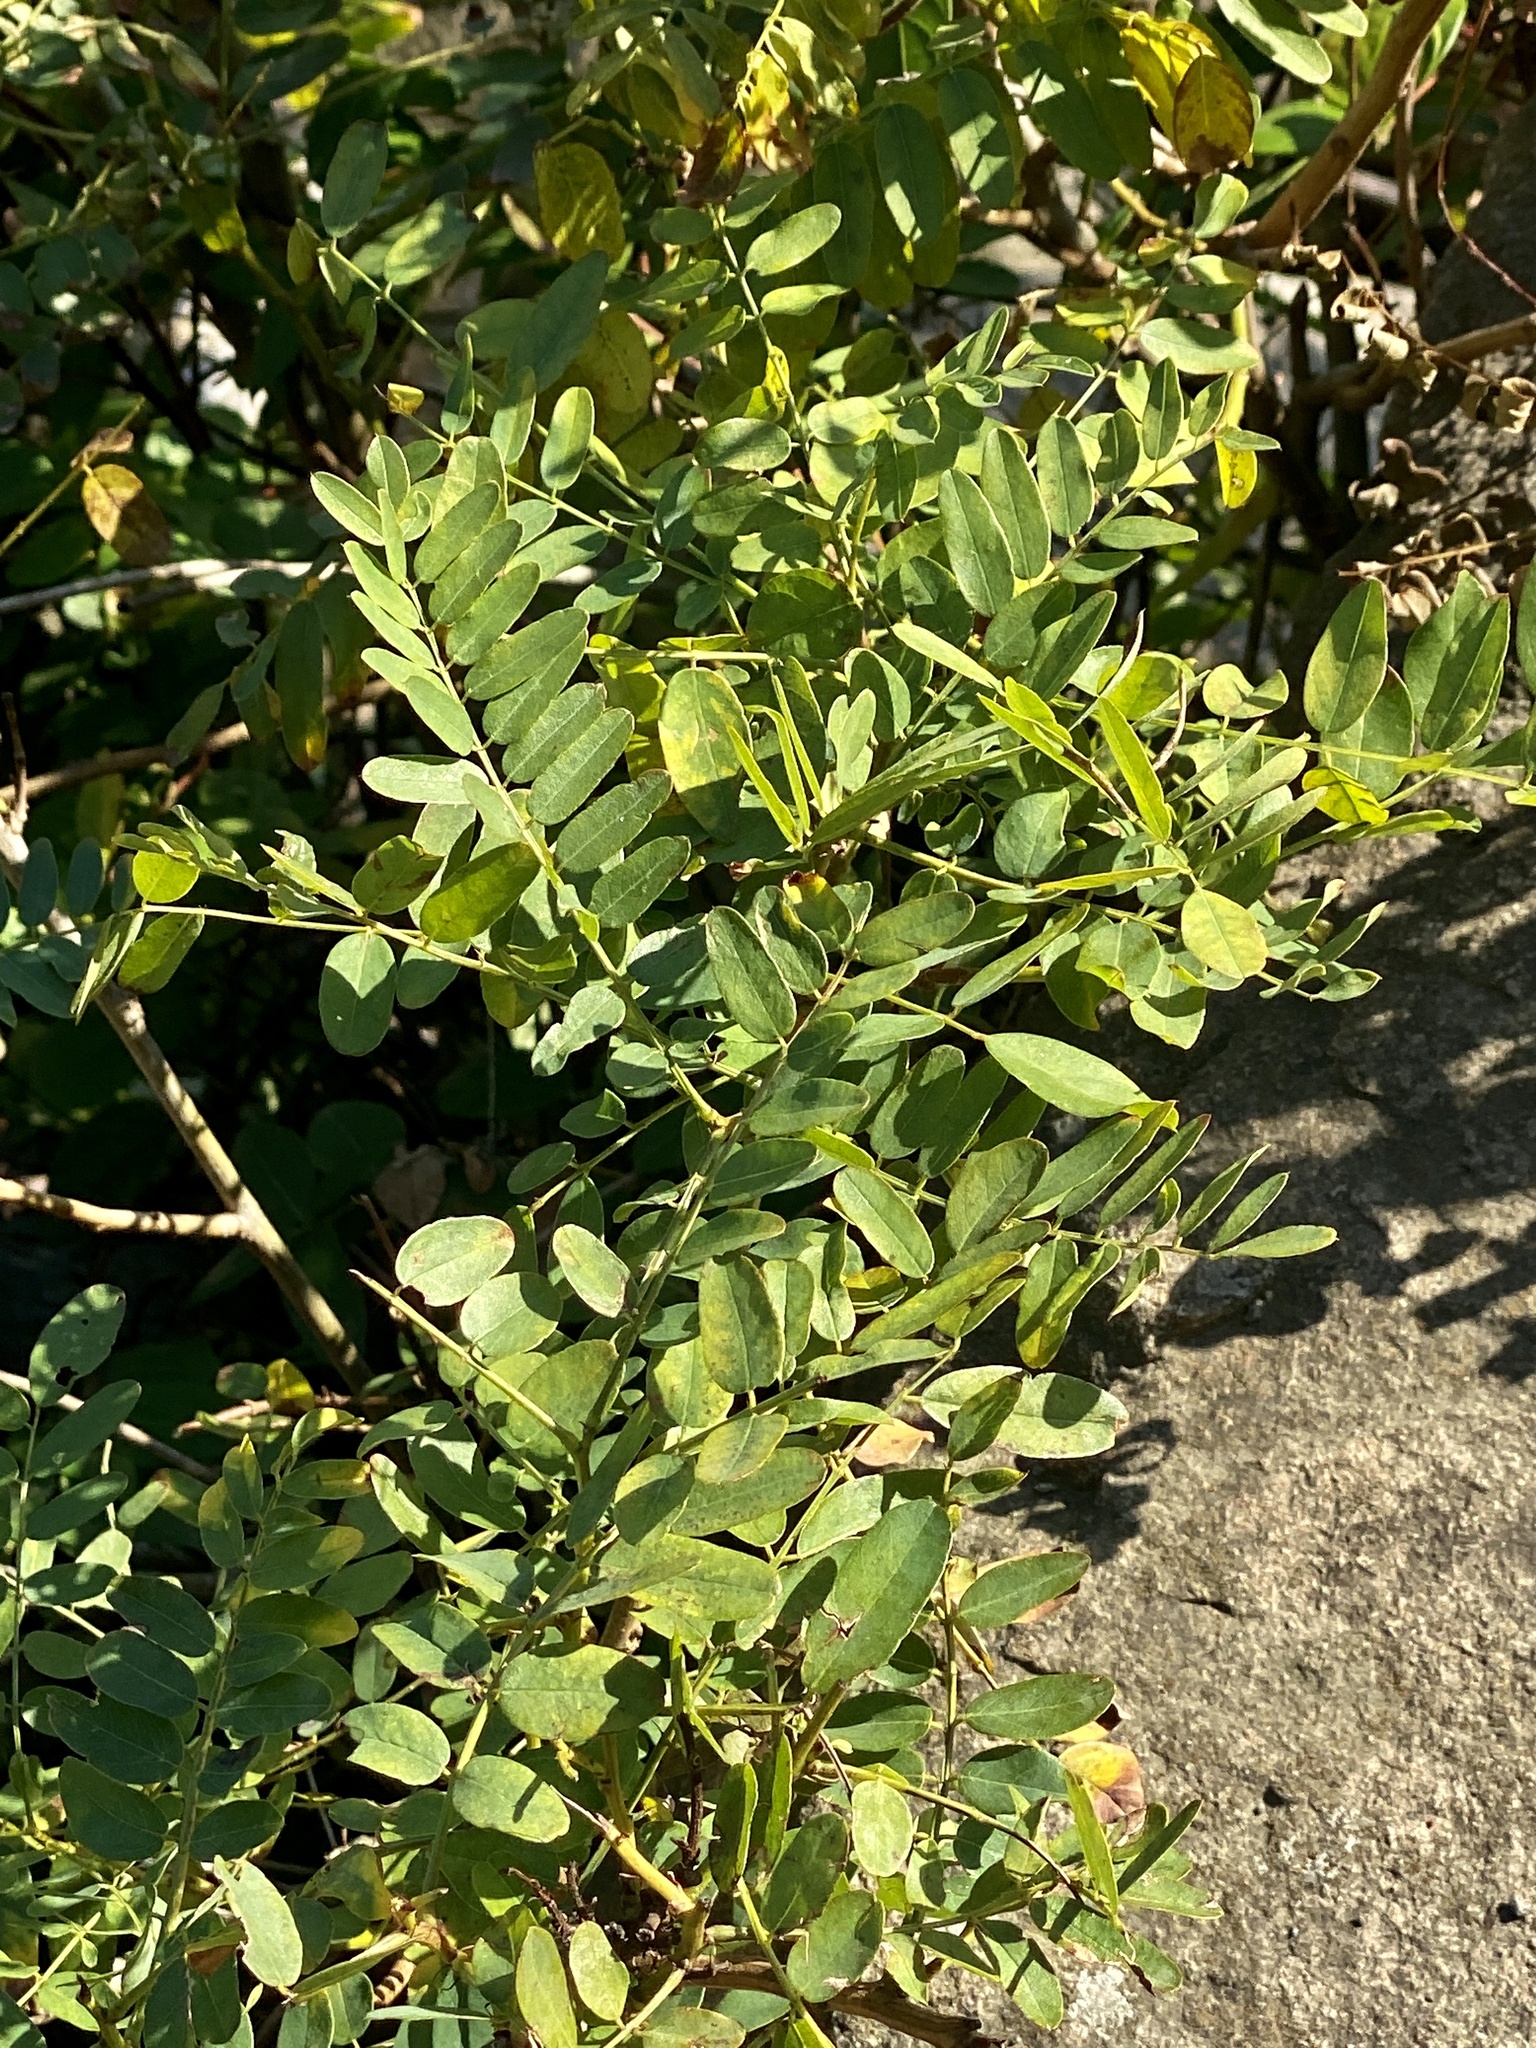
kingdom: Plantae
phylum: Tracheophyta
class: Magnoliopsida
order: Fabales
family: Fabaceae
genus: Amorpha
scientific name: Amorpha fruticosa
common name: False indigo
